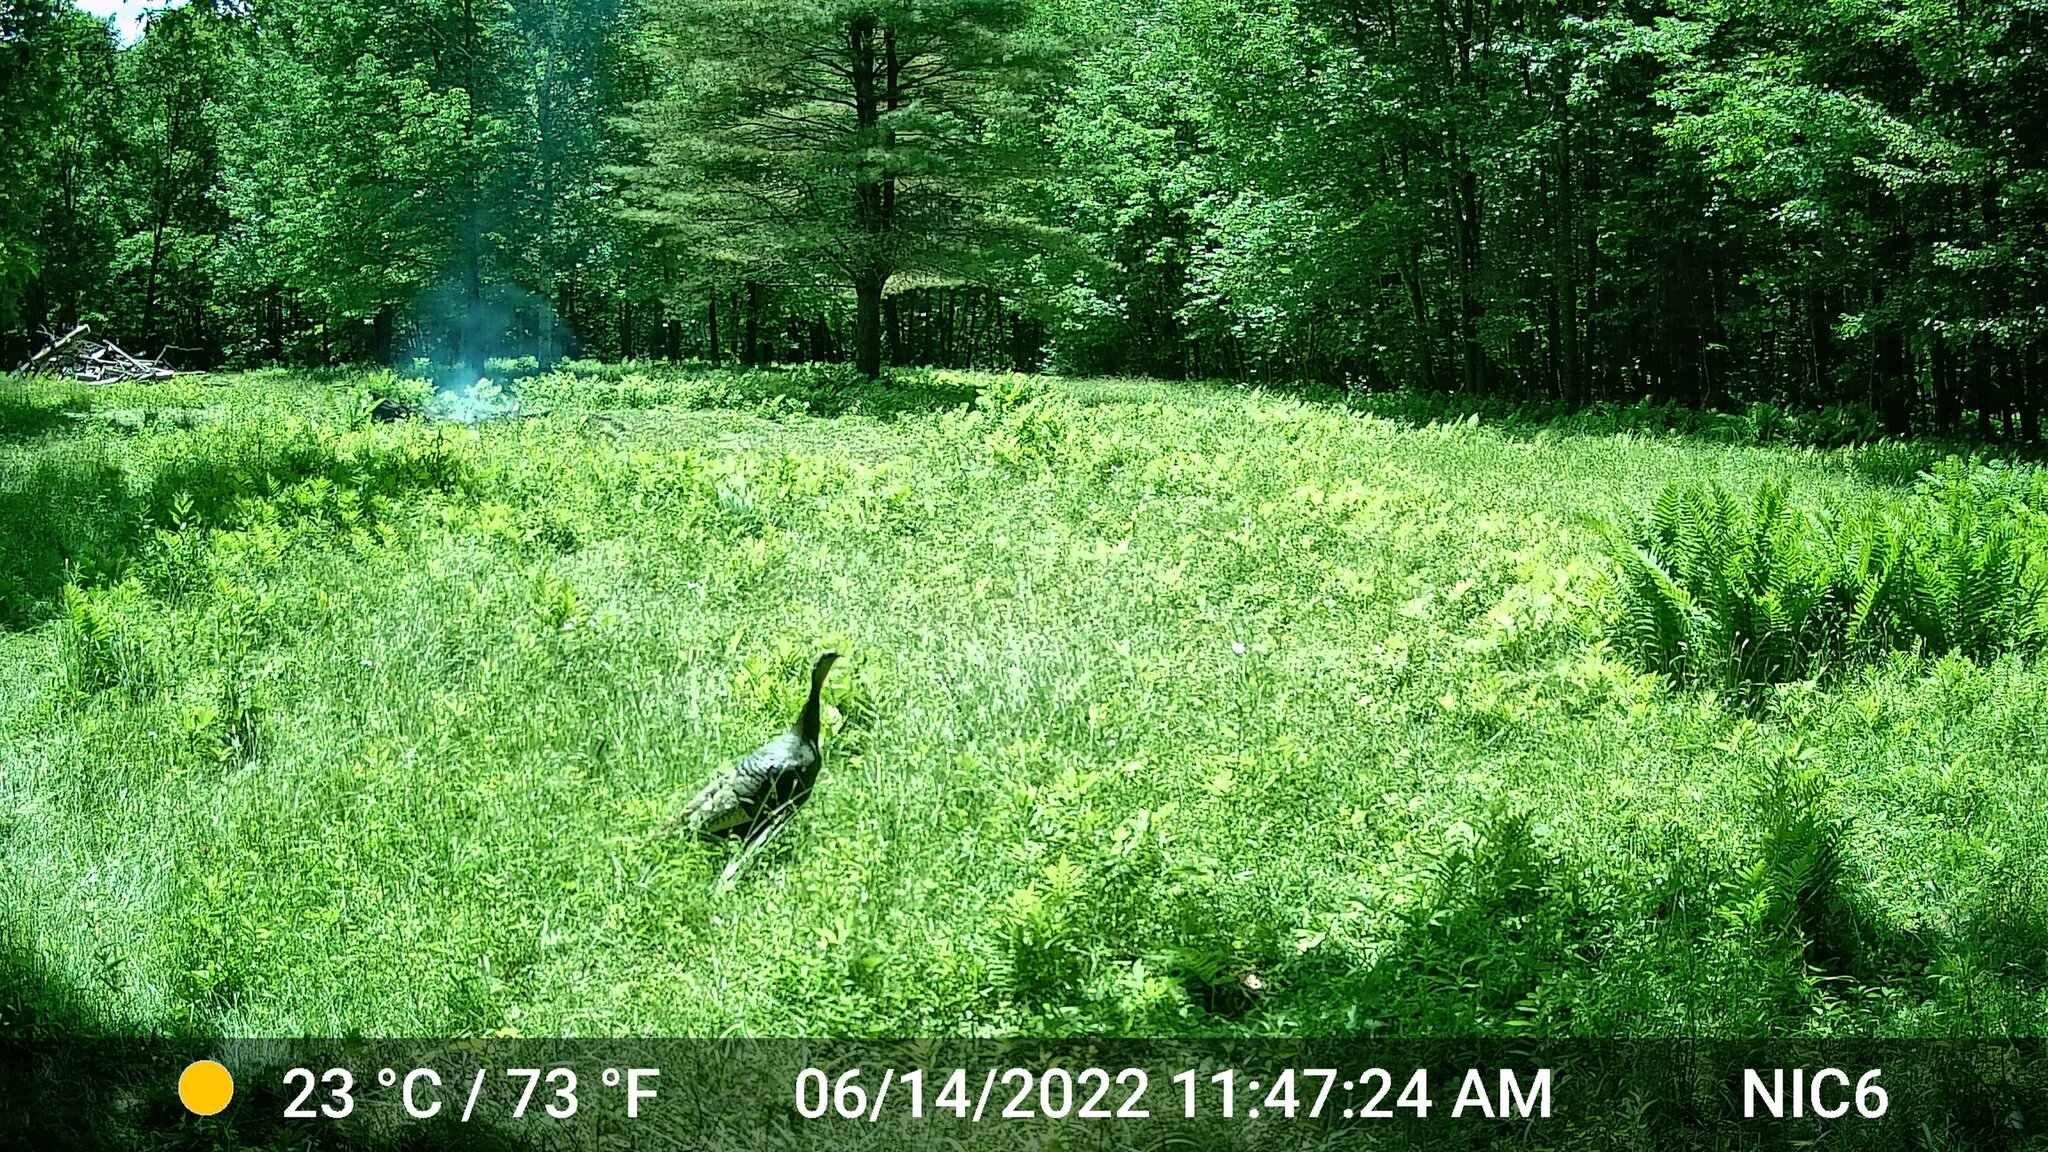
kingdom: Animalia
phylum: Chordata
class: Aves
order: Galliformes
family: Phasianidae
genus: Meleagris
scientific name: Meleagris gallopavo
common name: Wild turkey
